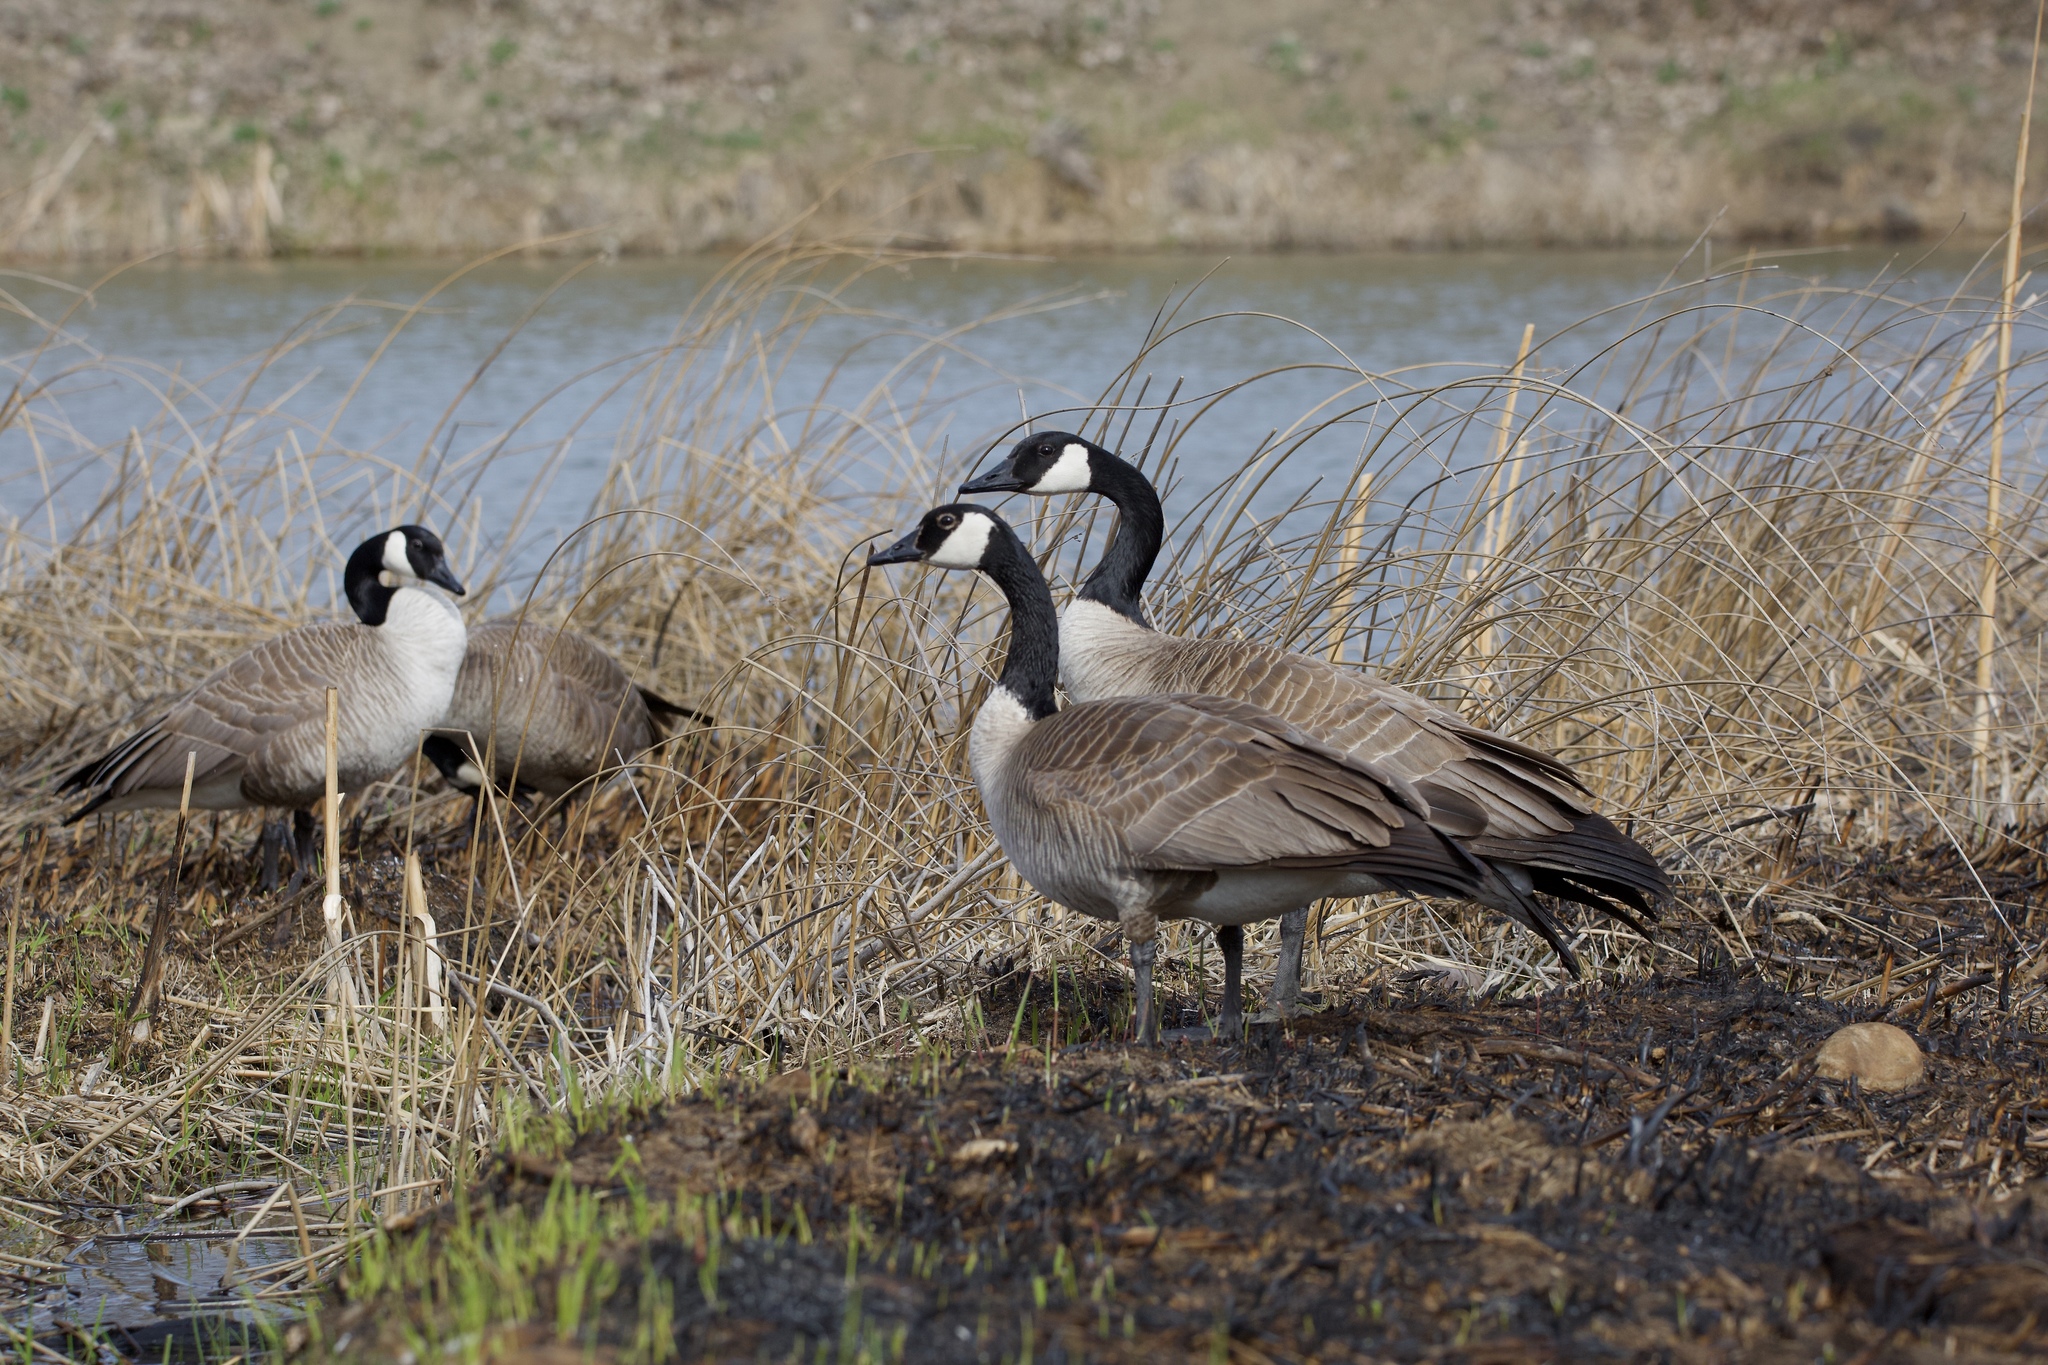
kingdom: Animalia
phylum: Chordata
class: Aves
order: Anseriformes
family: Anatidae
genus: Branta
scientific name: Branta canadensis
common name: Canada goose
